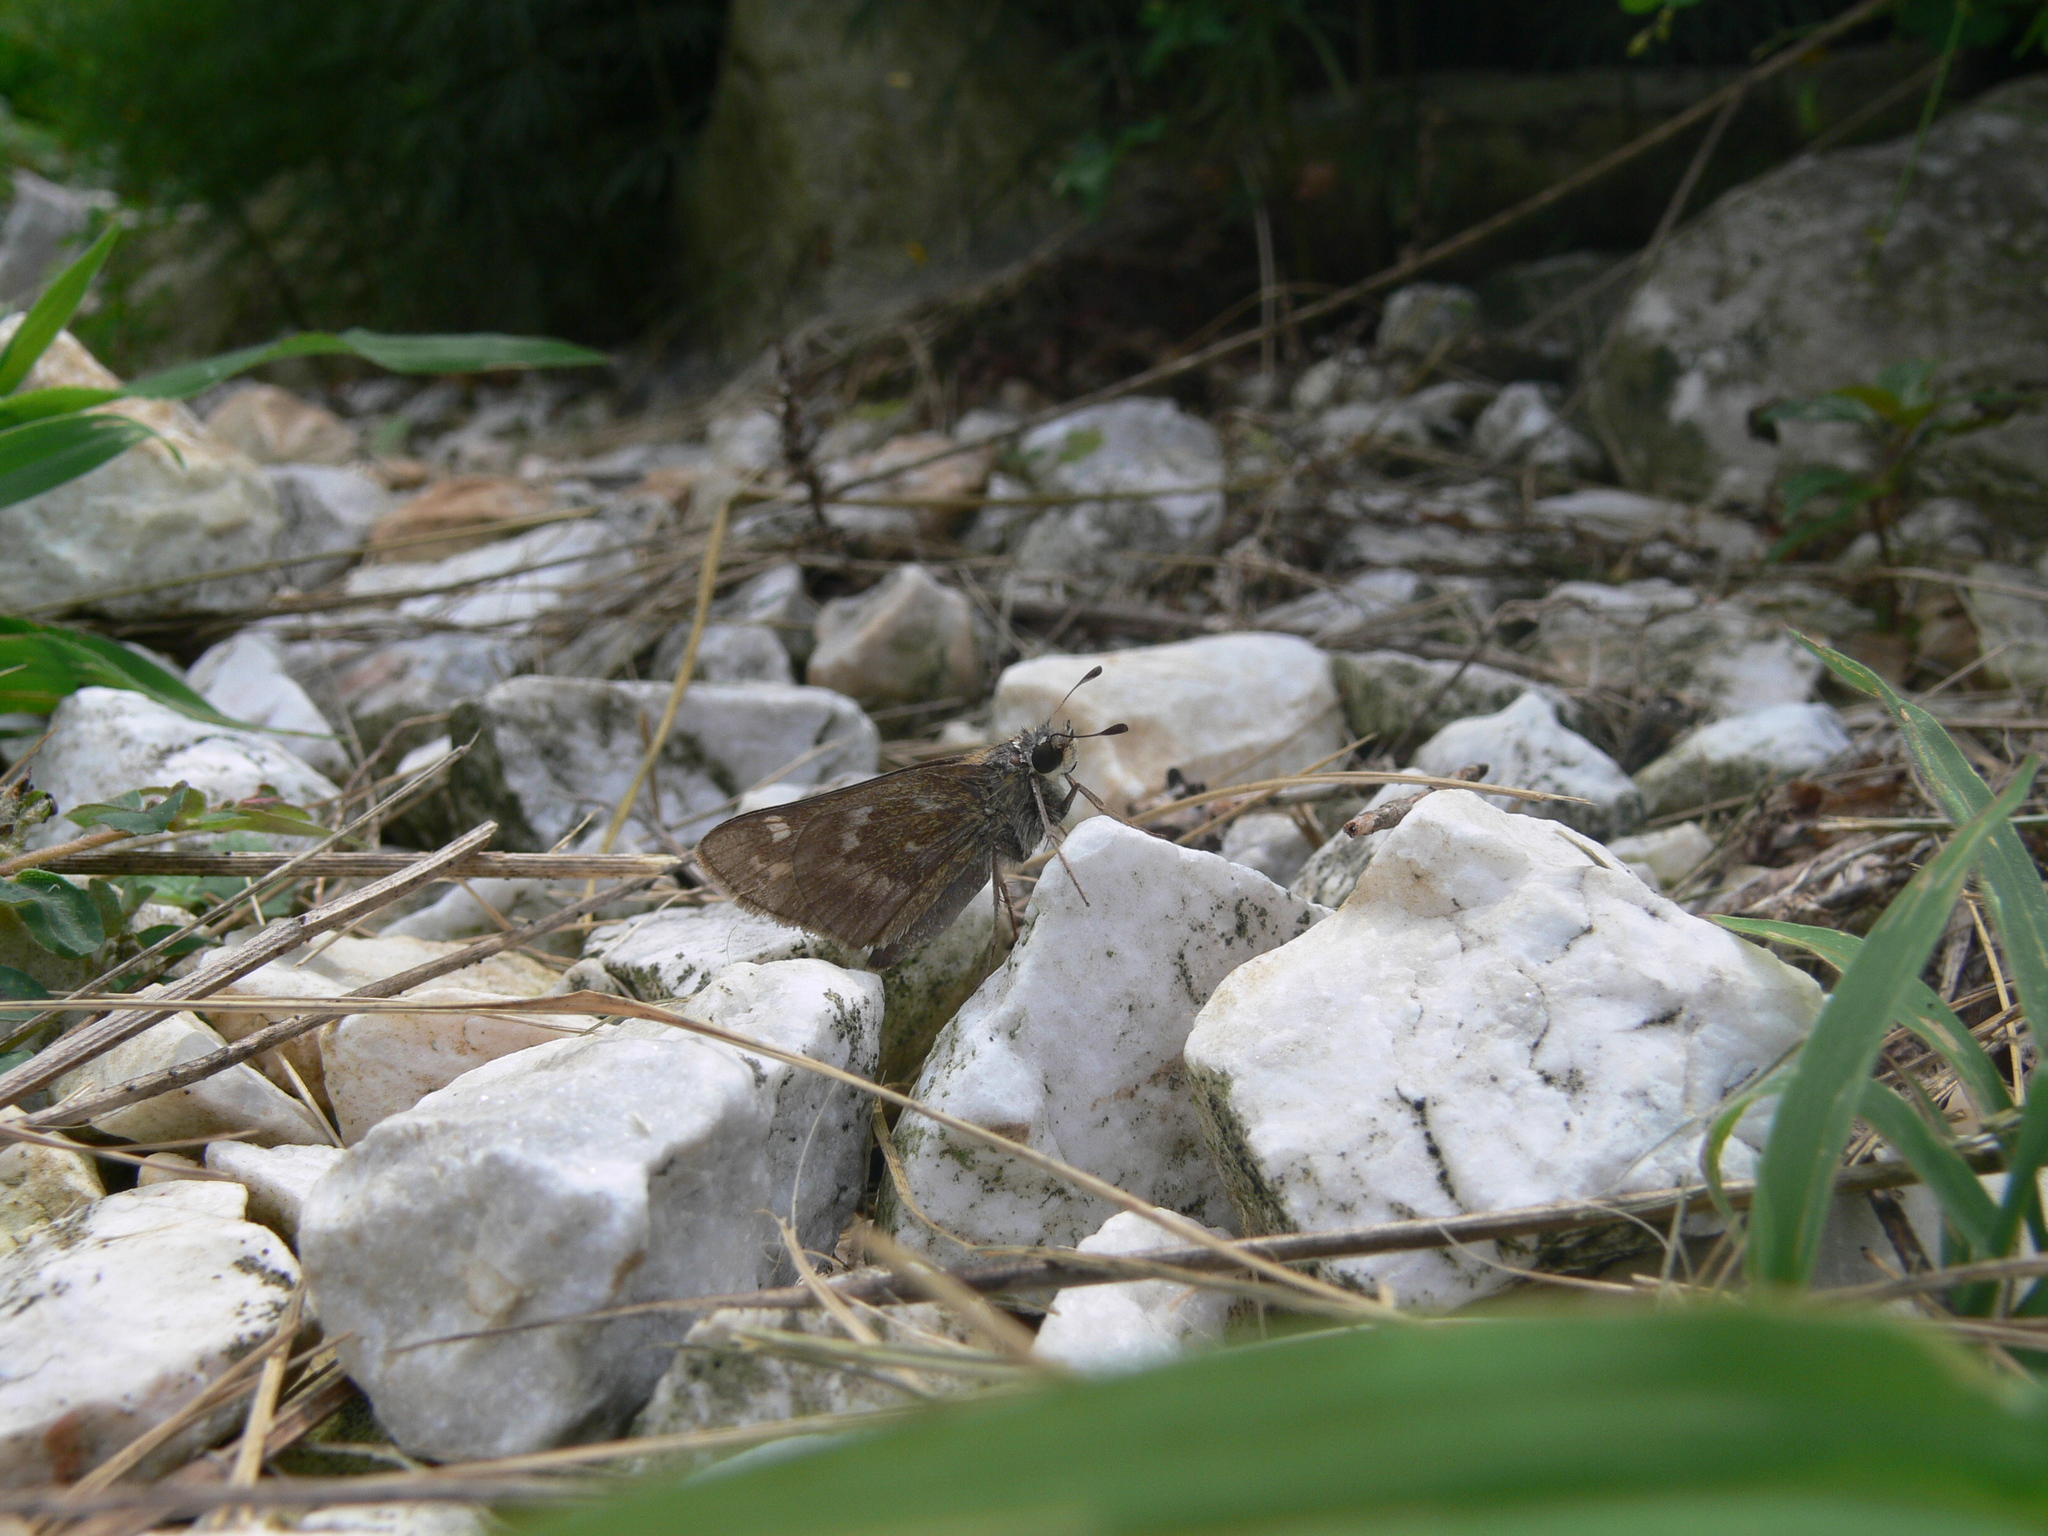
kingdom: Animalia
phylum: Arthropoda
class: Insecta
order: Lepidoptera
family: Hesperiidae
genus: Atalopedes
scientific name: Atalopedes
